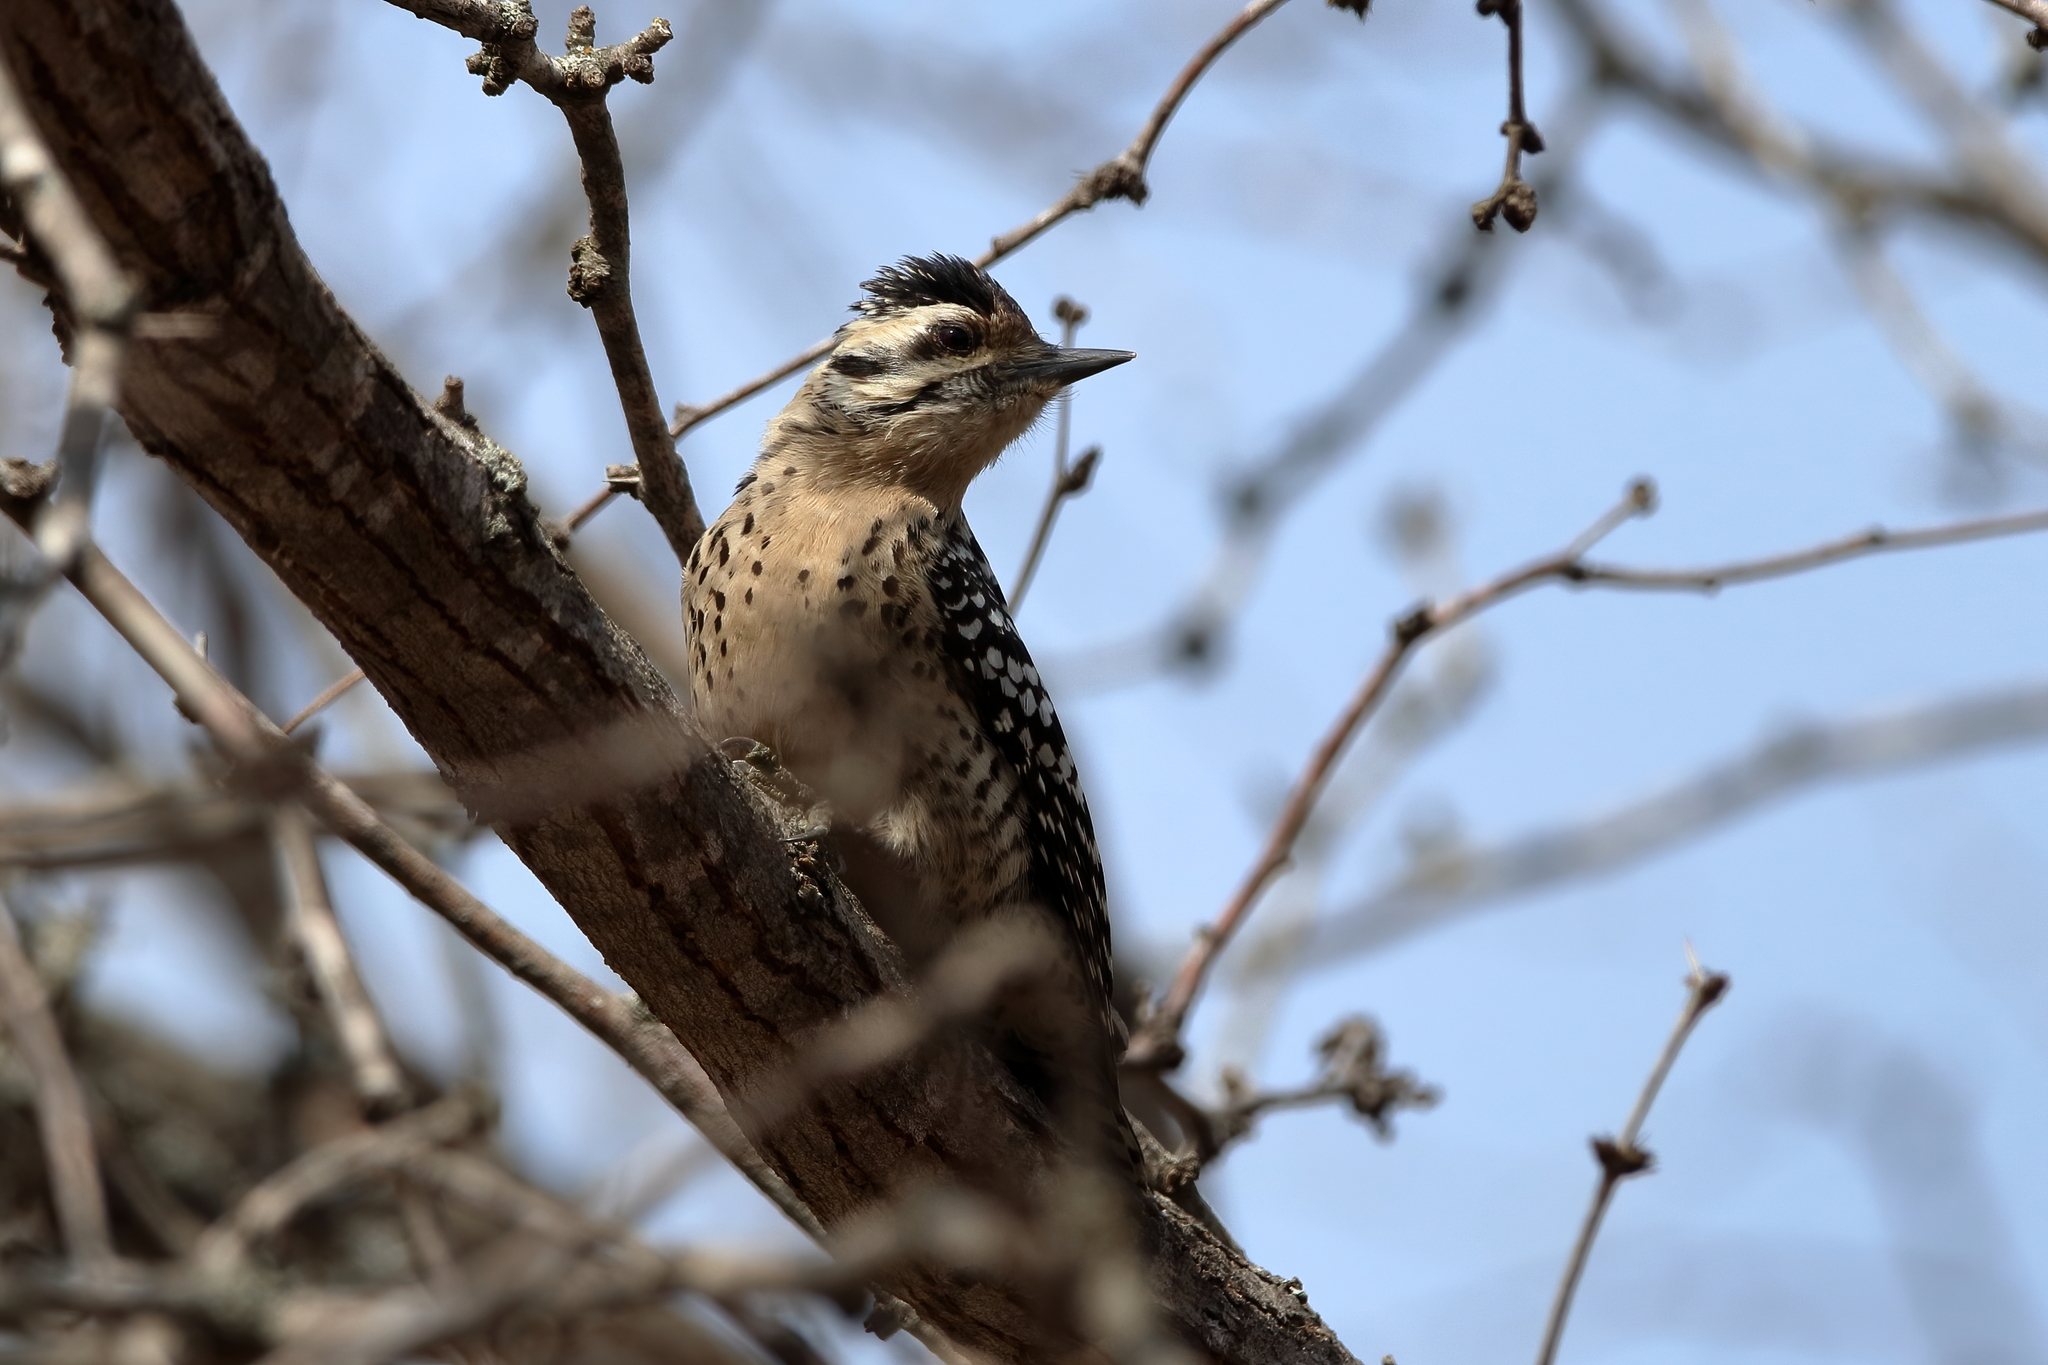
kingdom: Animalia
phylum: Chordata
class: Aves
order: Piciformes
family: Picidae
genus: Dryobates
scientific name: Dryobates scalaris
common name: Ladder-backed woodpecker
